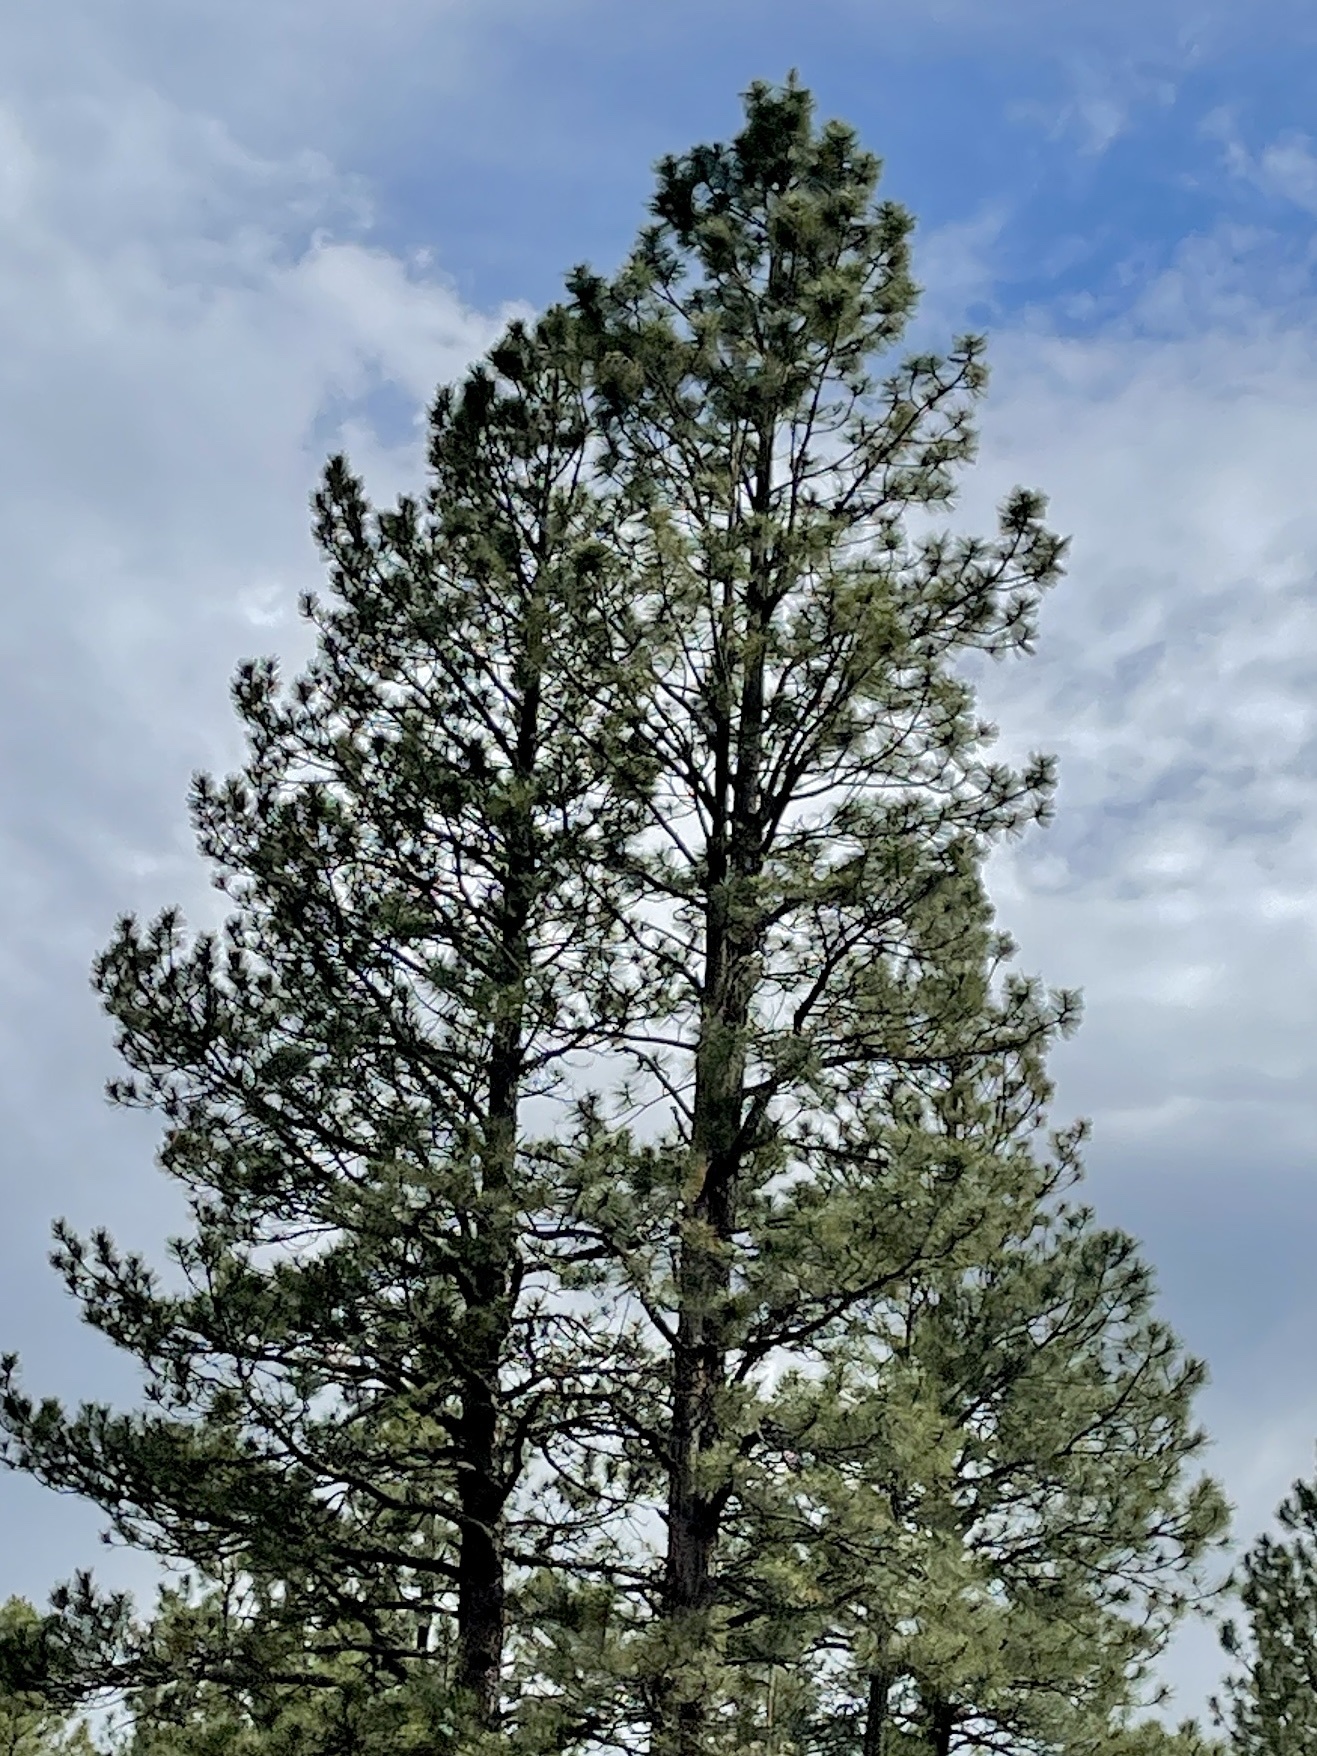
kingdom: Plantae
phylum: Tracheophyta
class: Pinopsida
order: Pinales
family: Pinaceae
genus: Pinus
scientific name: Pinus ponderosa
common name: Western yellow-pine
